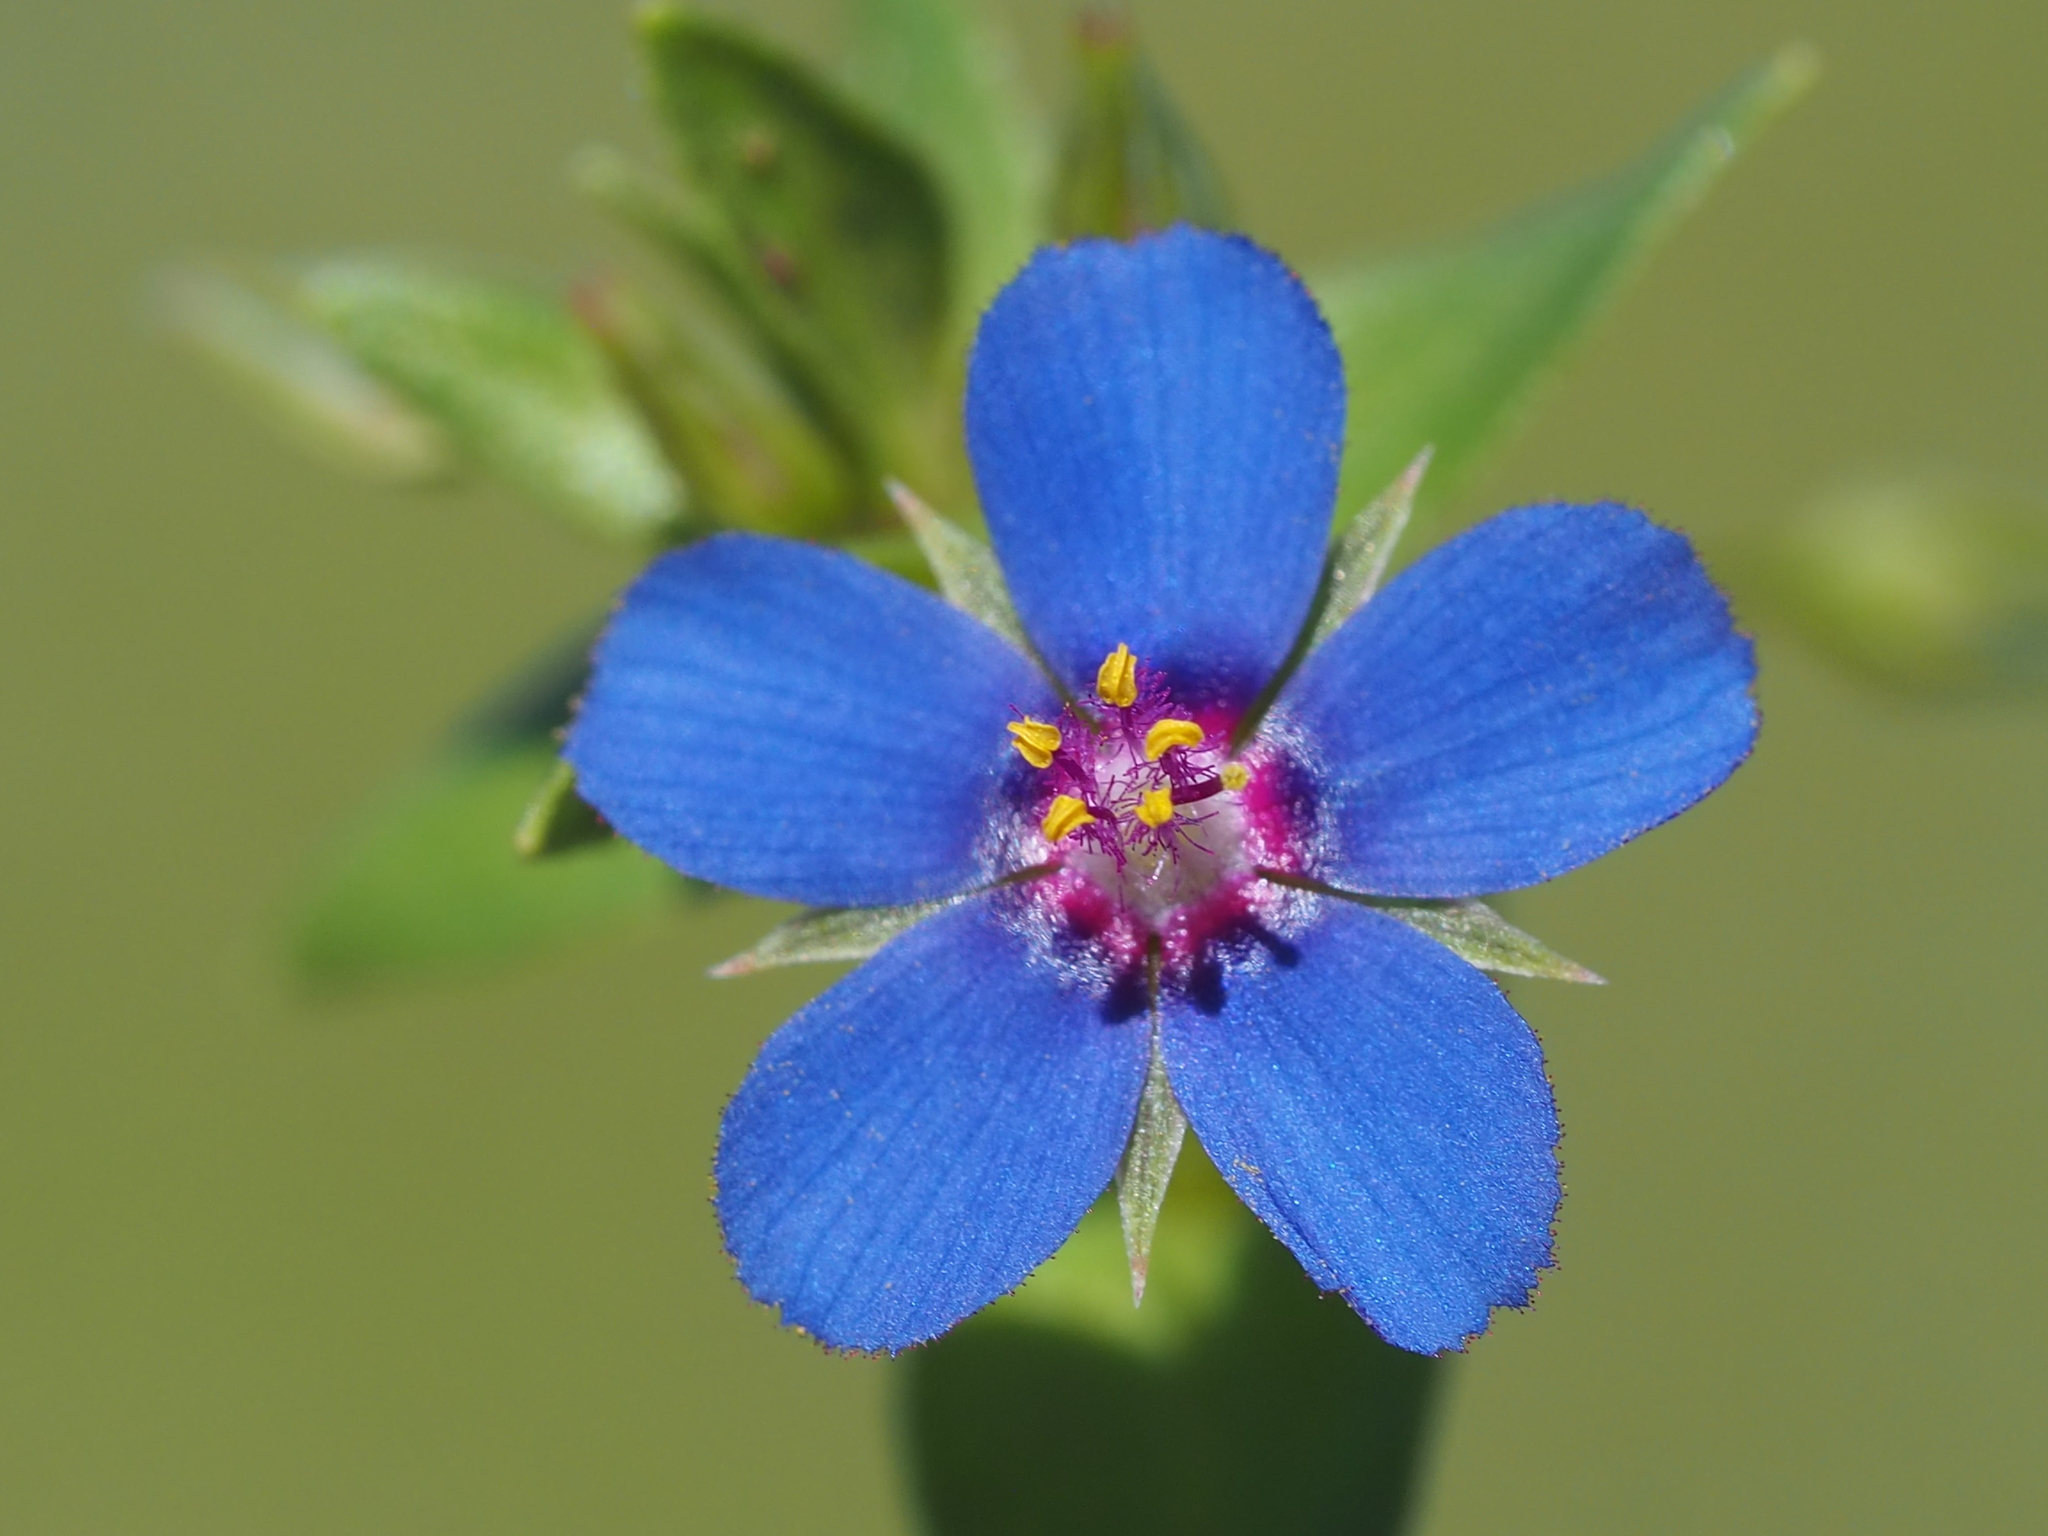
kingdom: Plantae
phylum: Tracheophyta
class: Magnoliopsida
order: Ericales
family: Primulaceae
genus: Lysimachia
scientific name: Lysimachia loeflingii
